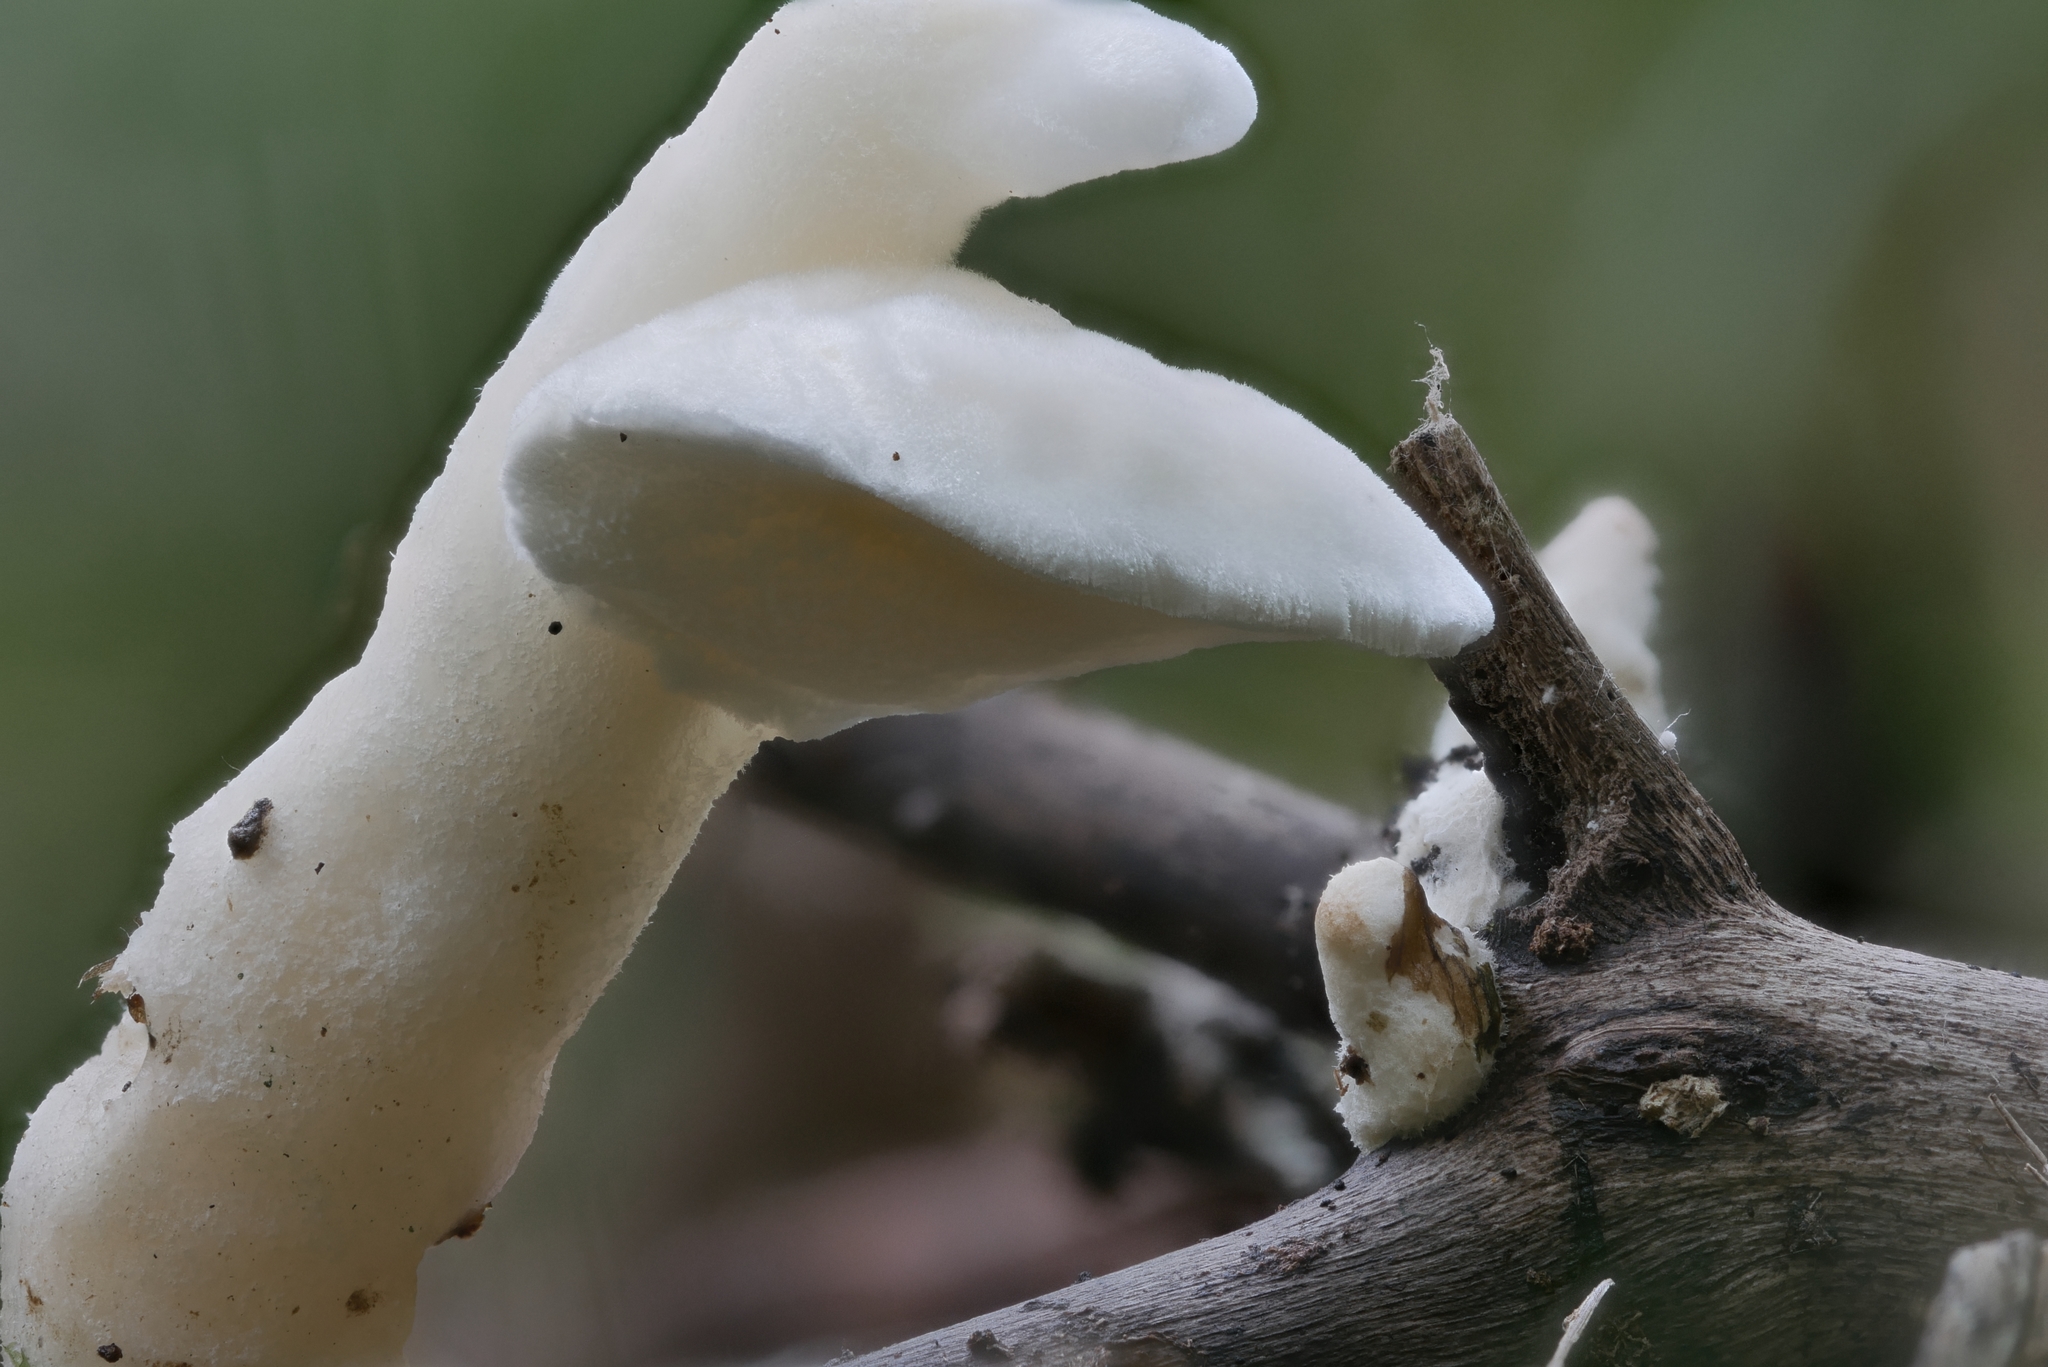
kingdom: Fungi
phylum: Basidiomycota
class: Agaricomycetes
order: Polyporales
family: Steccherinaceae
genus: Loweomyces
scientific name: Loweomyces fractipes
